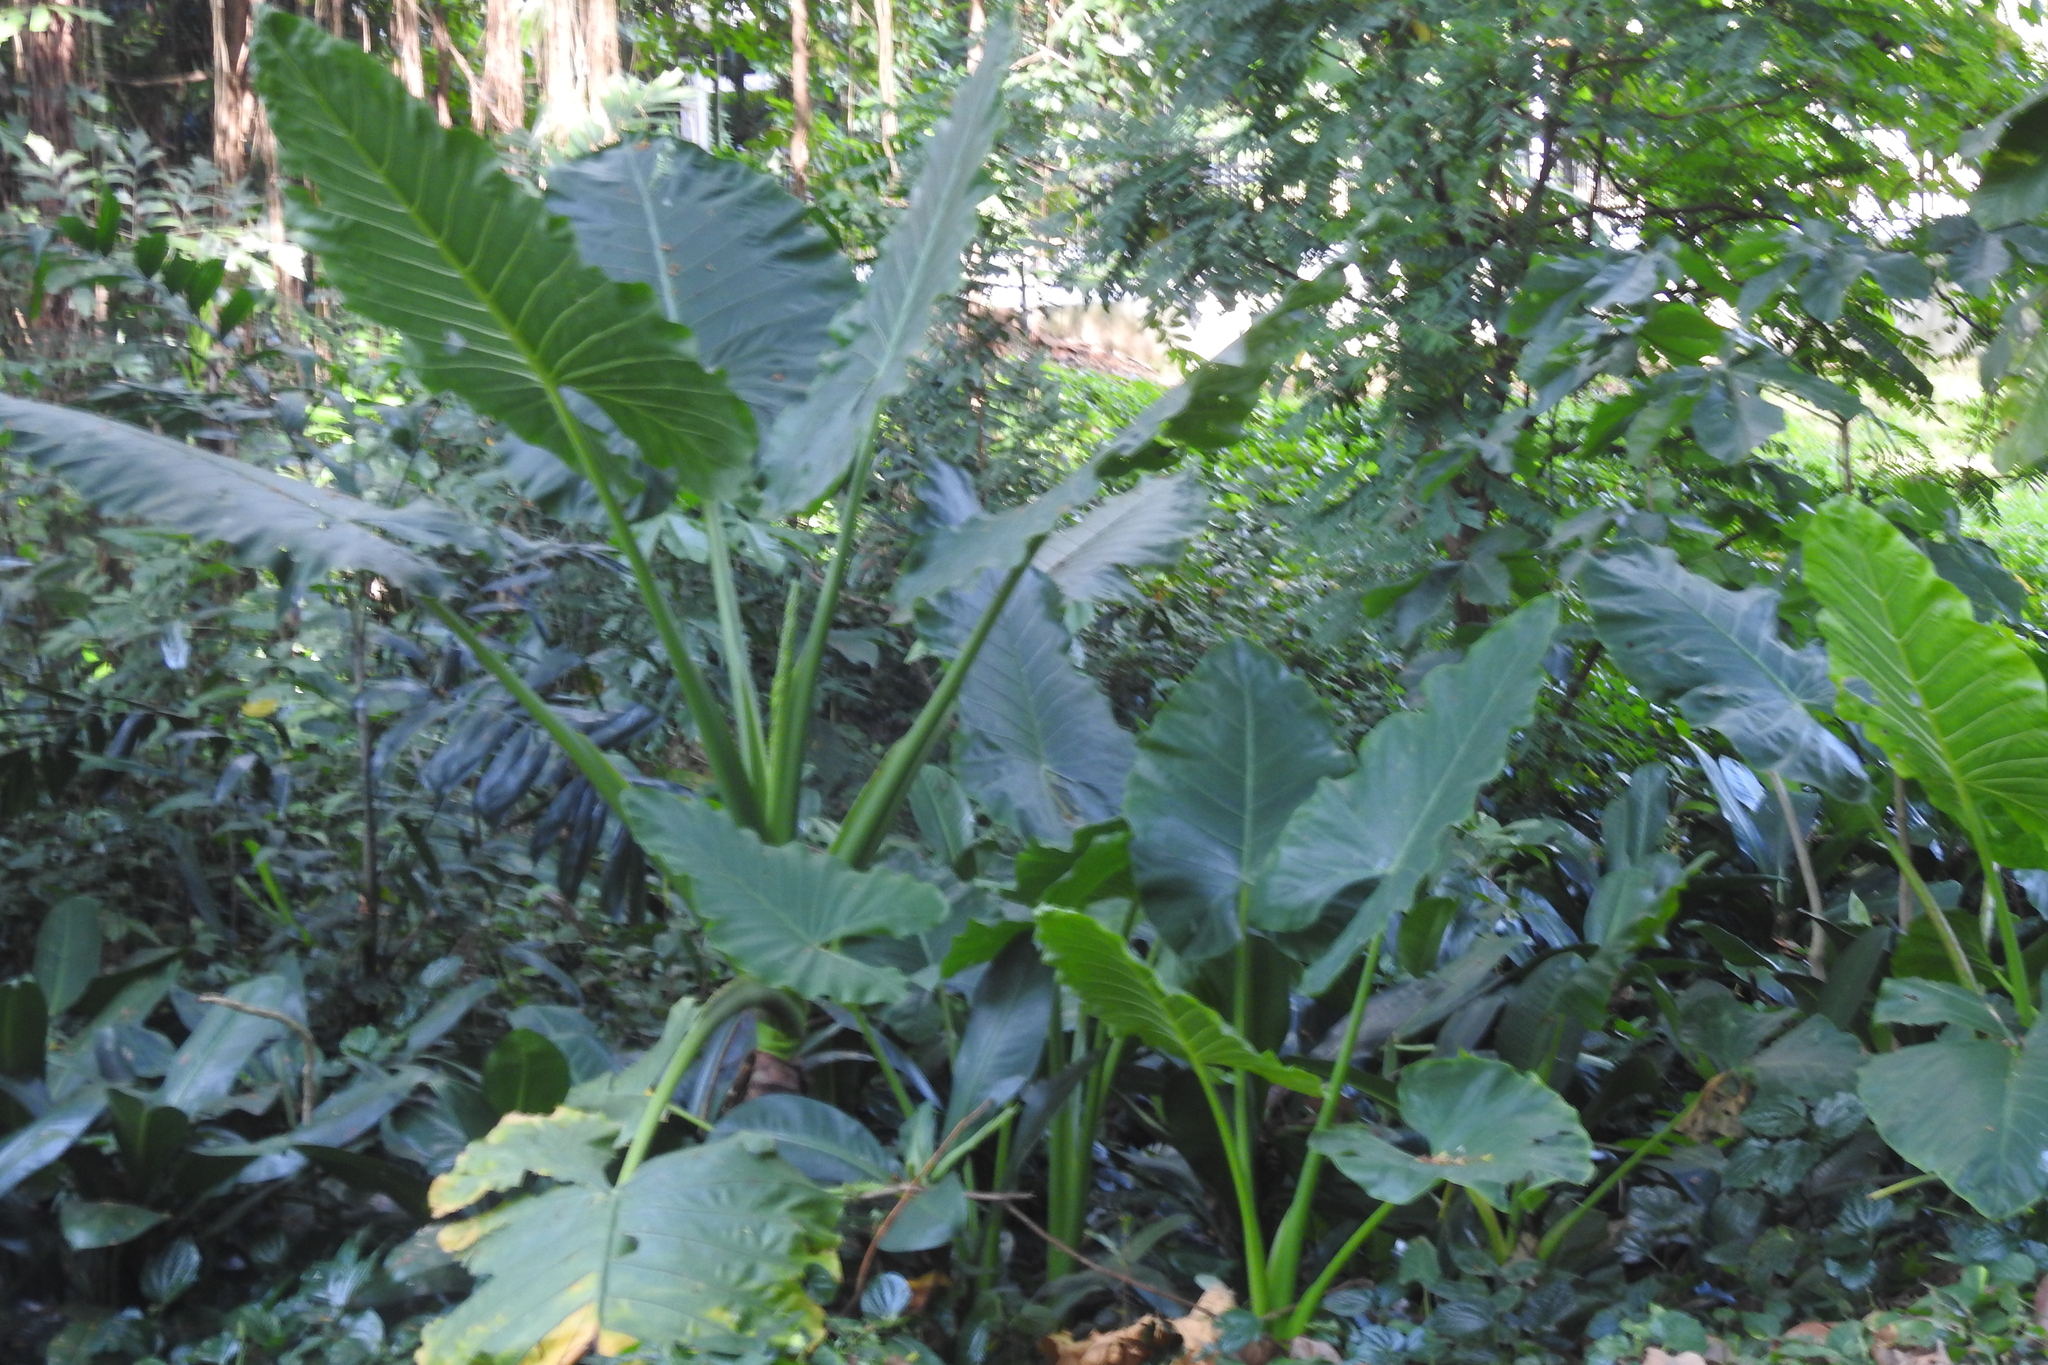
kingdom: Plantae
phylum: Tracheophyta
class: Liliopsida
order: Alismatales
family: Araceae
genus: Alocasia
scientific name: Alocasia macrorrhizos
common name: Giant taro
